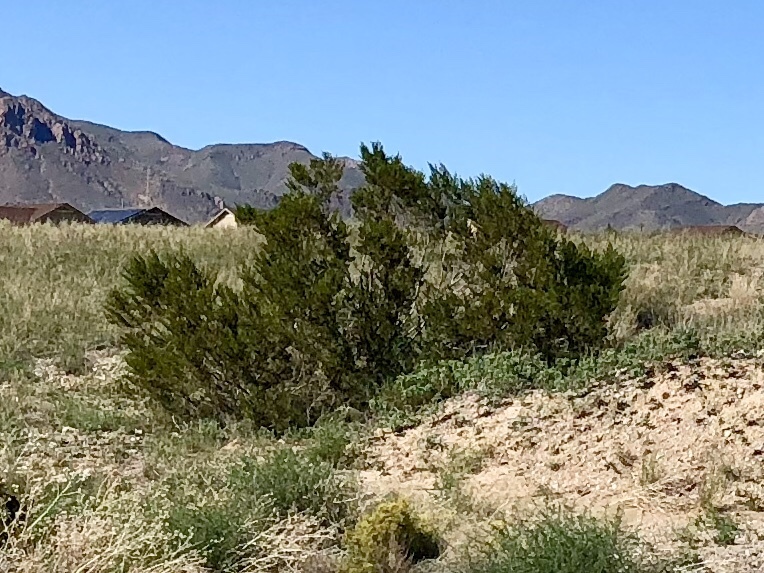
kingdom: Plantae
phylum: Tracheophyta
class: Magnoliopsida
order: Zygophyllales
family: Zygophyllaceae
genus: Larrea
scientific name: Larrea tridentata
